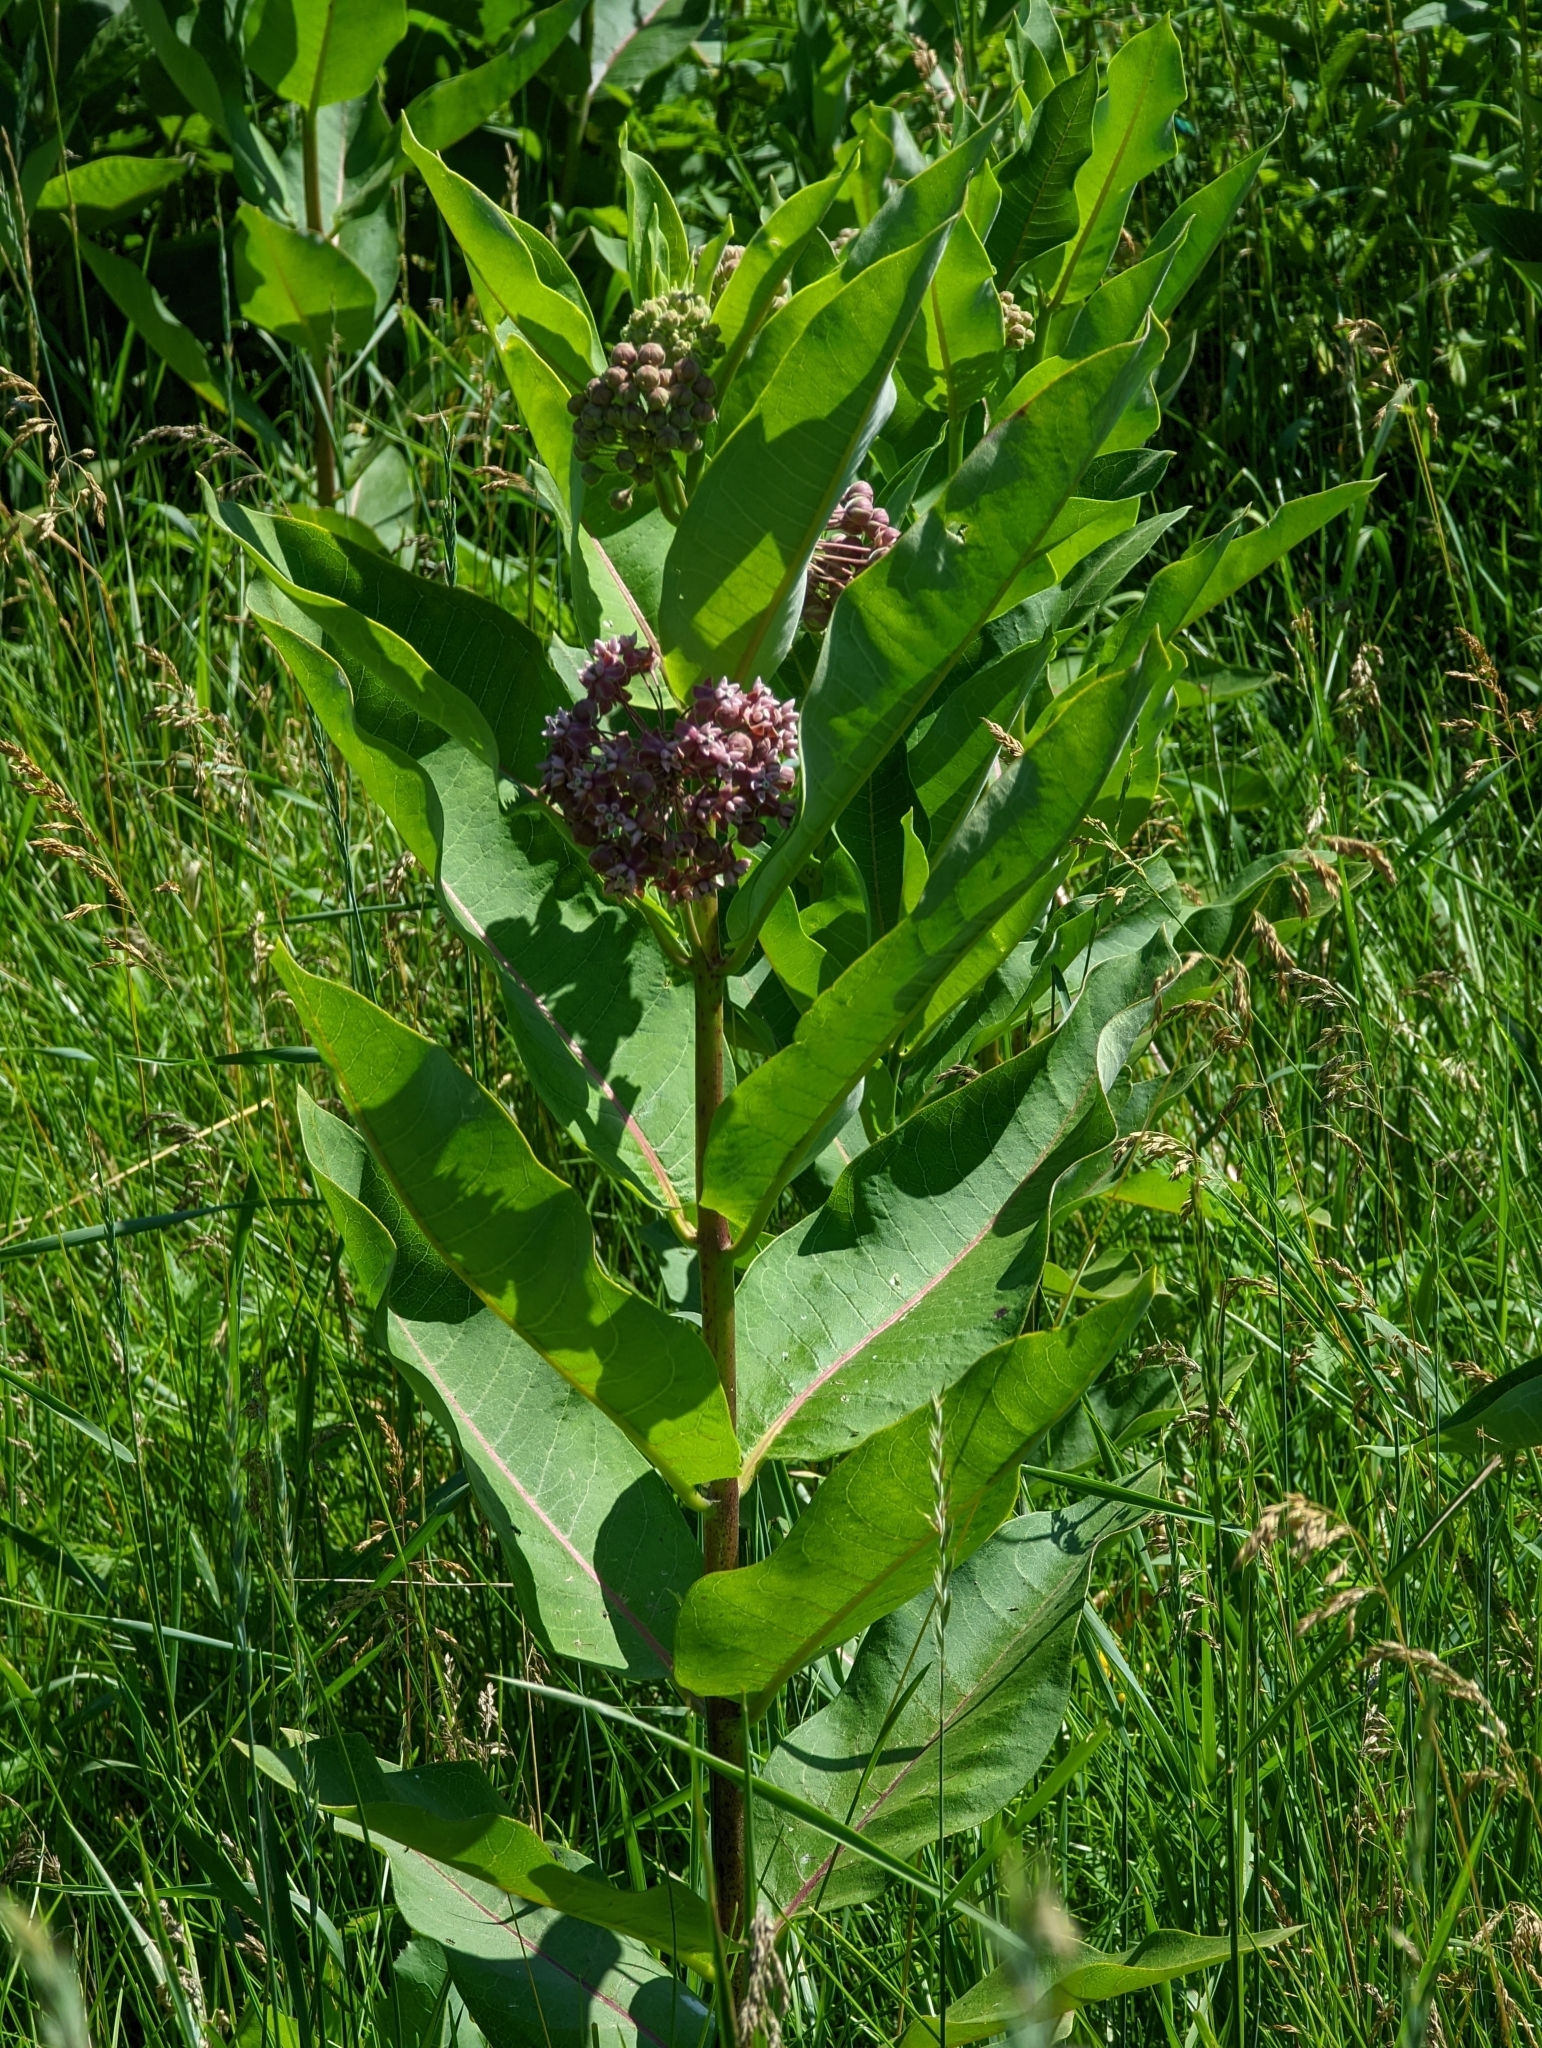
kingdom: Plantae
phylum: Tracheophyta
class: Magnoliopsida
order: Gentianales
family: Apocynaceae
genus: Asclepias
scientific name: Asclepias syriaca
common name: Common milkweed
